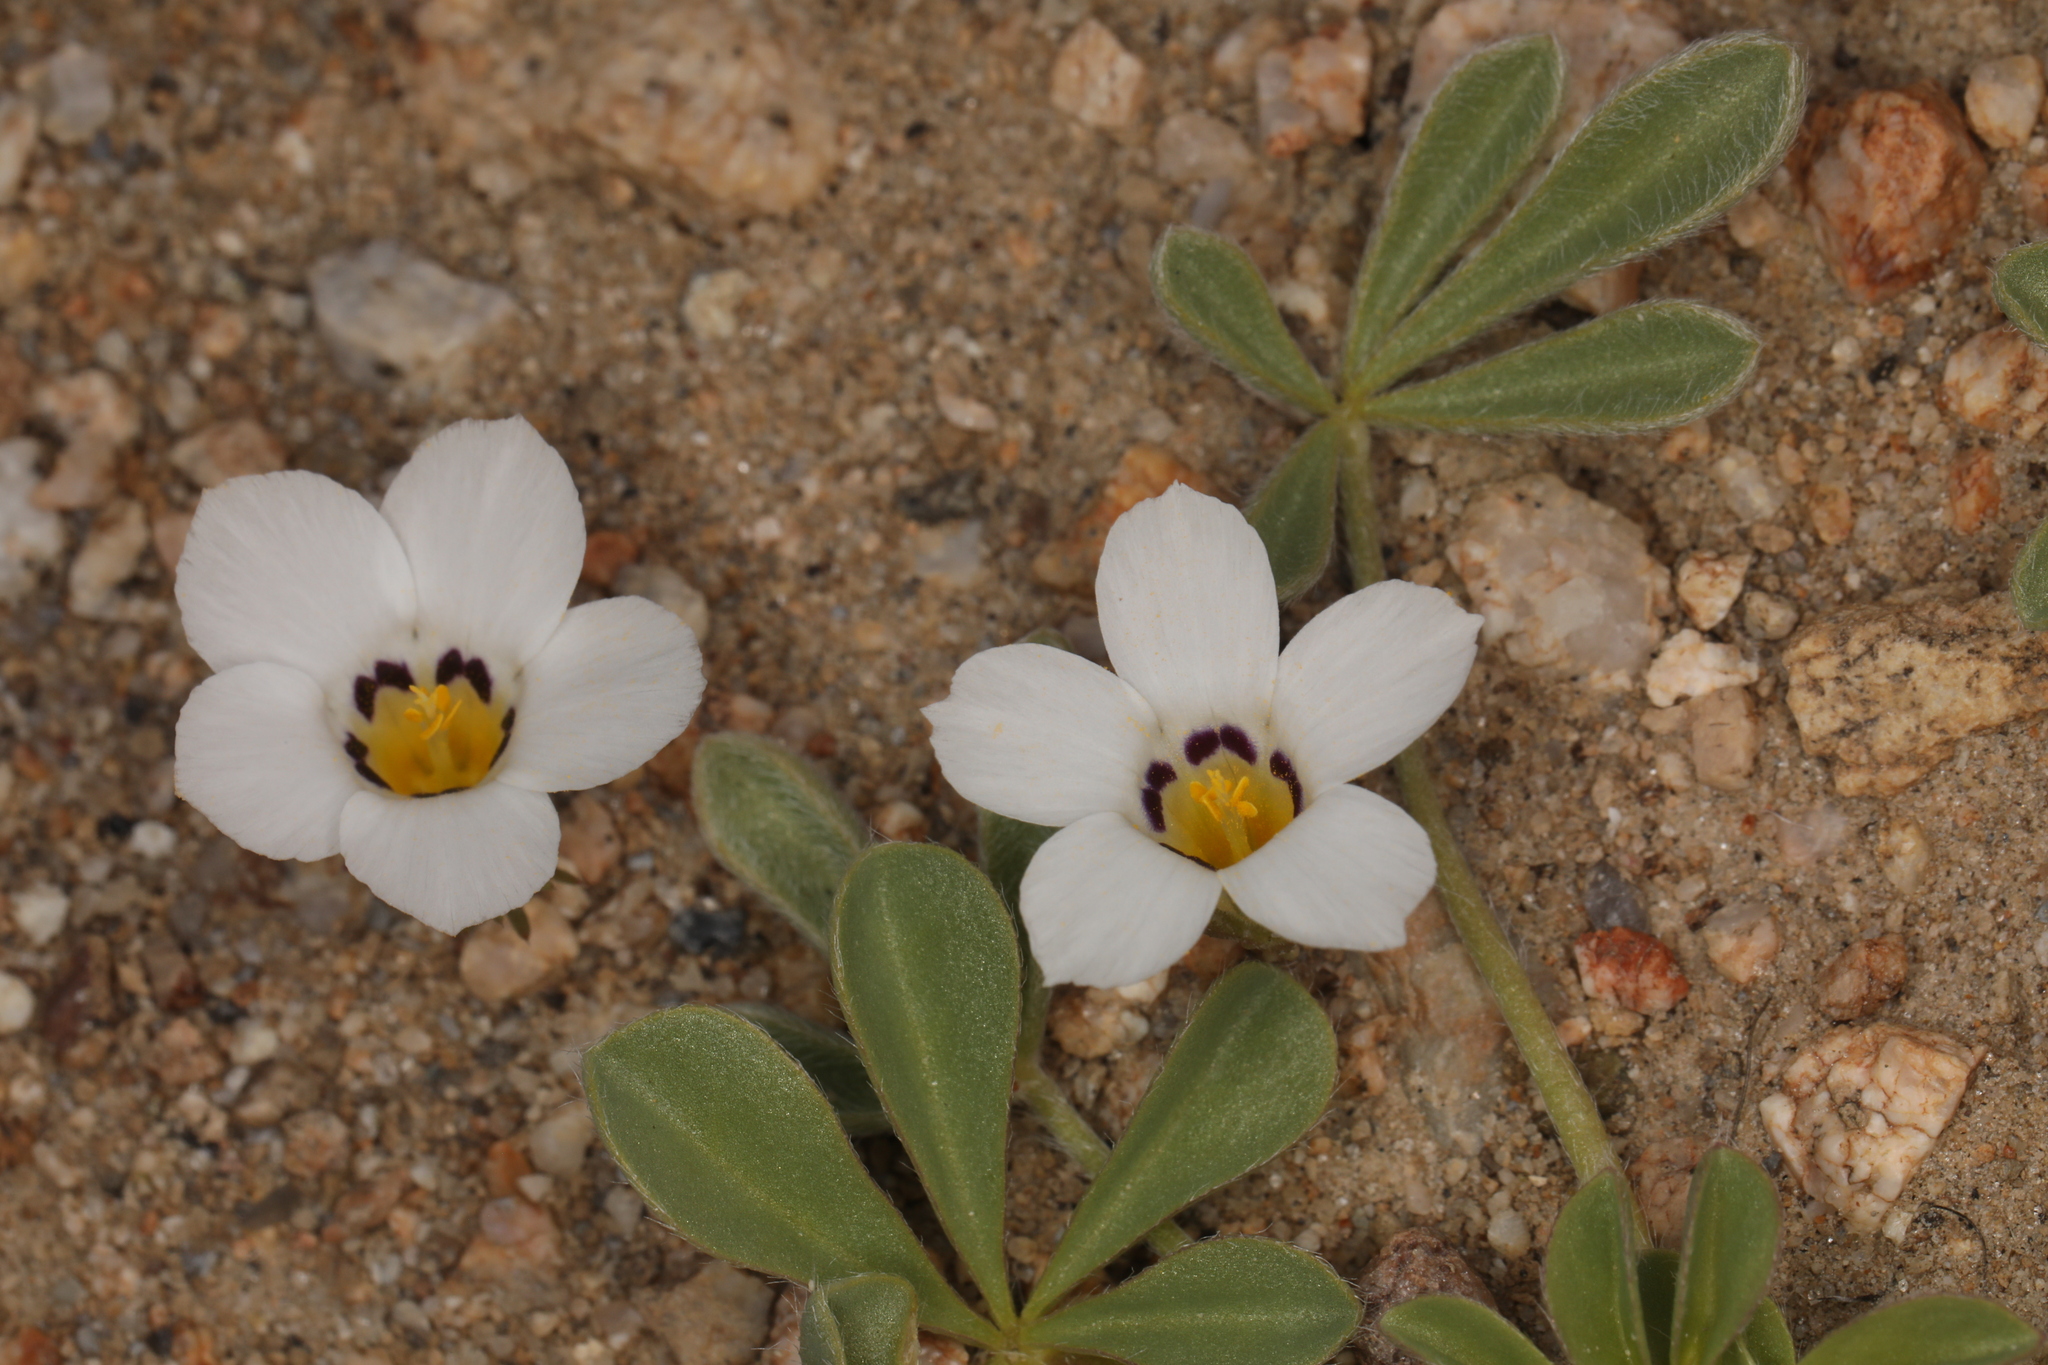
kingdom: Plantae
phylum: Tracheophyta
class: Magnoliopsida
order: Ericales
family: Polemoniaceae
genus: Linanthus
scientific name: Linanthus parryae
